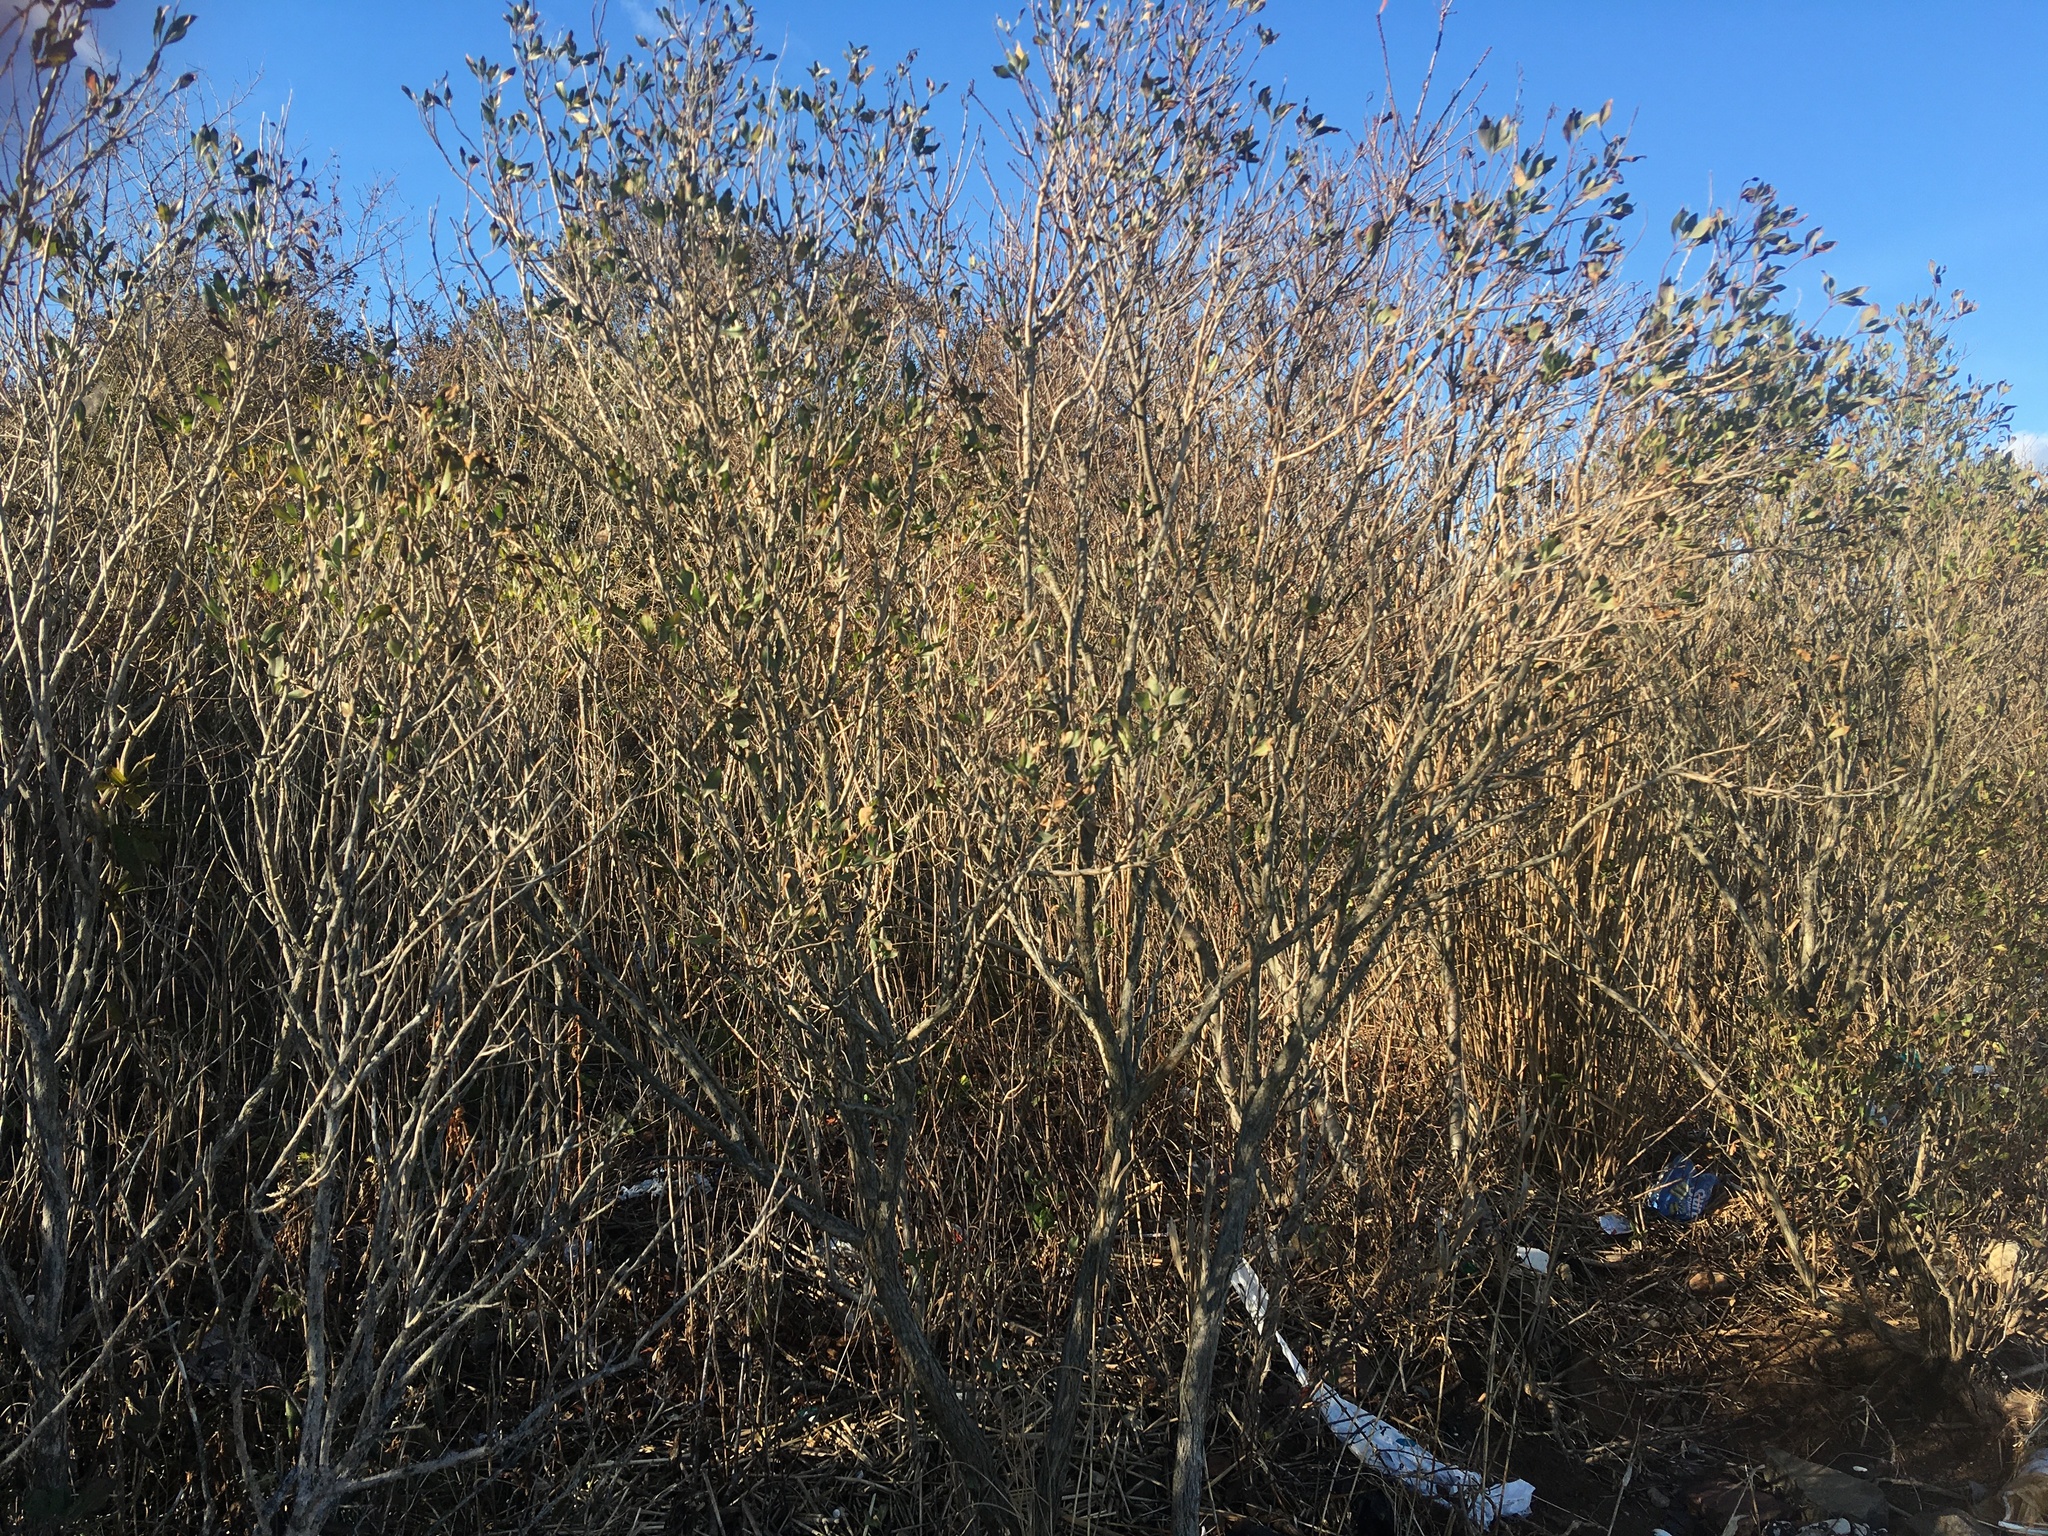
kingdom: Plantae
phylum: Tracheophyta
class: Magnoliopsida
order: Asterales
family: Asteraceae
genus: Baccharis
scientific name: Baccharis halimifolia
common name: Eastern baccharis
